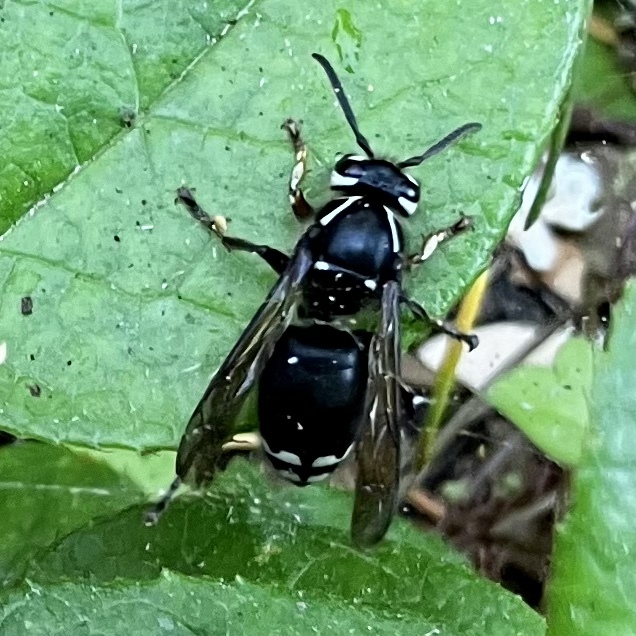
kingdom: Animalia
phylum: Arthropoda
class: Insecta
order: Hymenoptera
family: Vespidae
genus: Dolichovespula
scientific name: Dolichovespula maculata
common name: Bald-faced hornet
